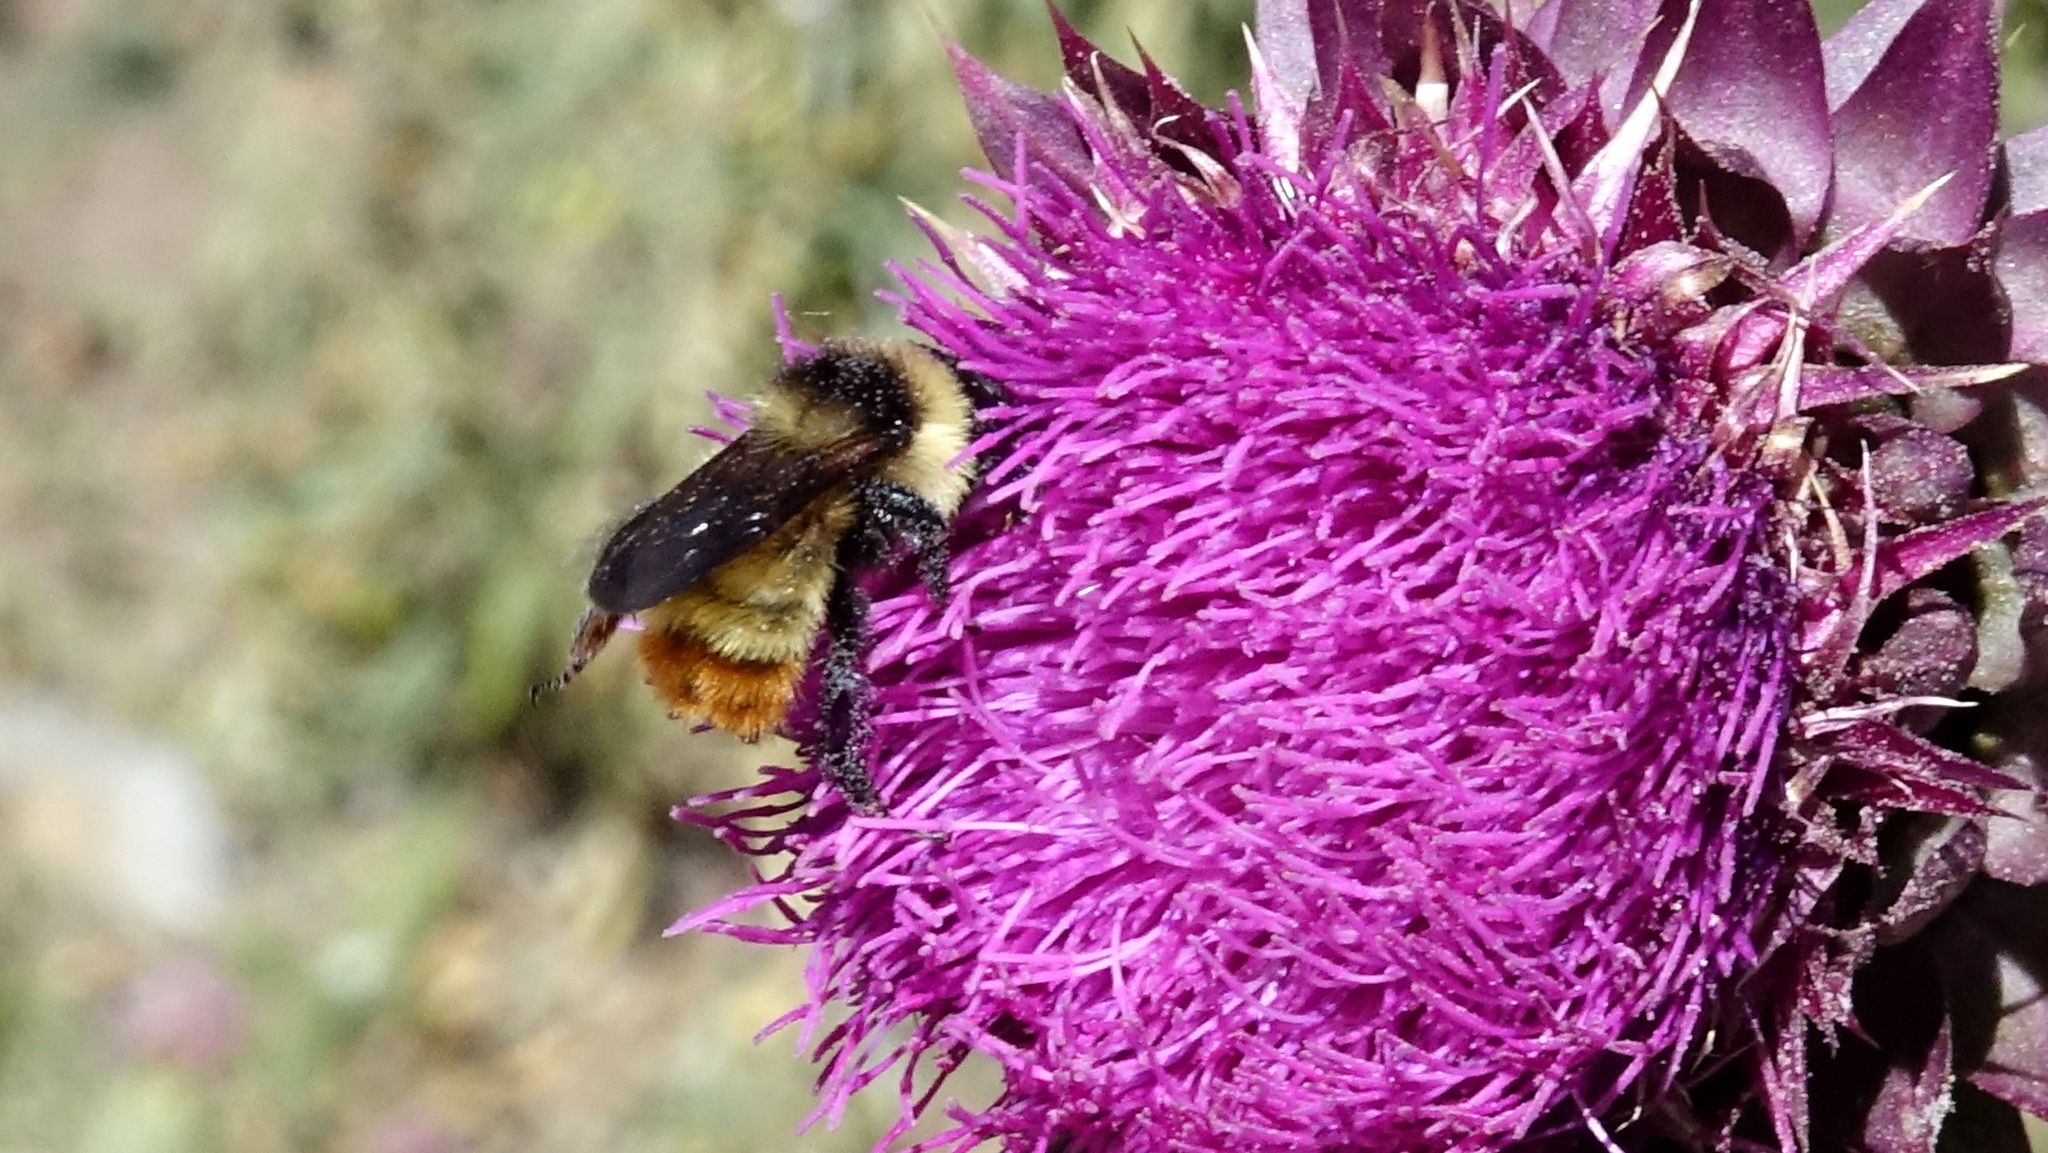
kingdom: Animalia
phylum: Arthropoda
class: Insecta
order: Hymenoptera
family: Apidae
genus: Bombus
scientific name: Bombus opifex
